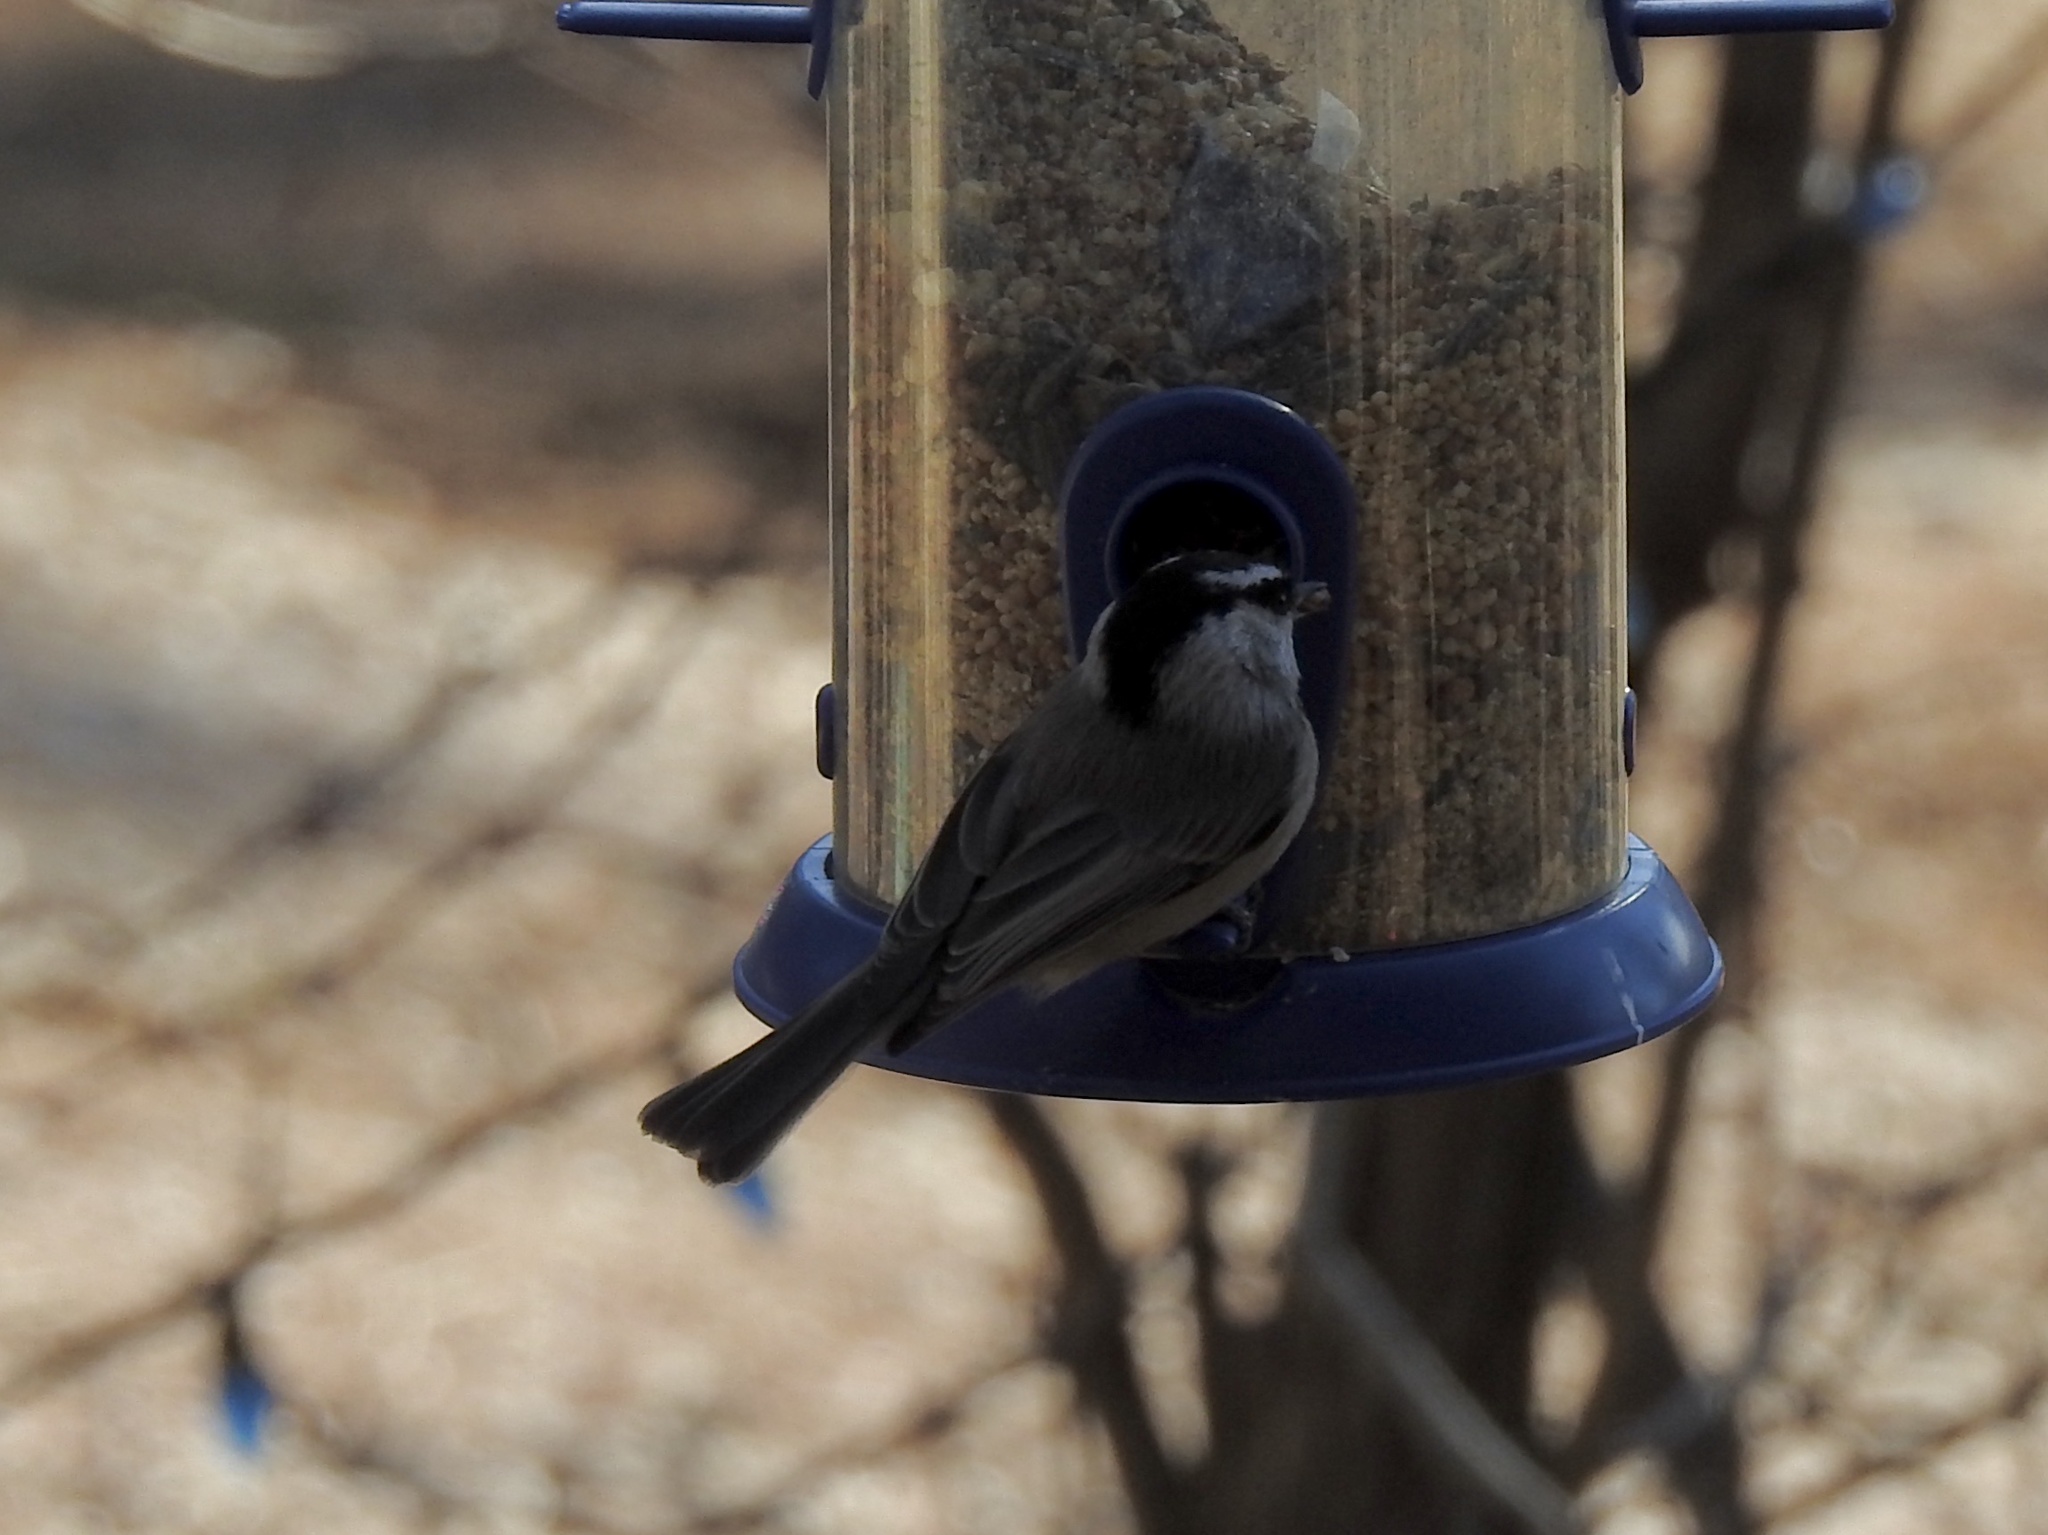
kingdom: Animalia
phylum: Chordata
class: Aves
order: Passeriformes
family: Paridae
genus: Poecile
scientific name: Poecile gambeli
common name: Mountain chickadee
